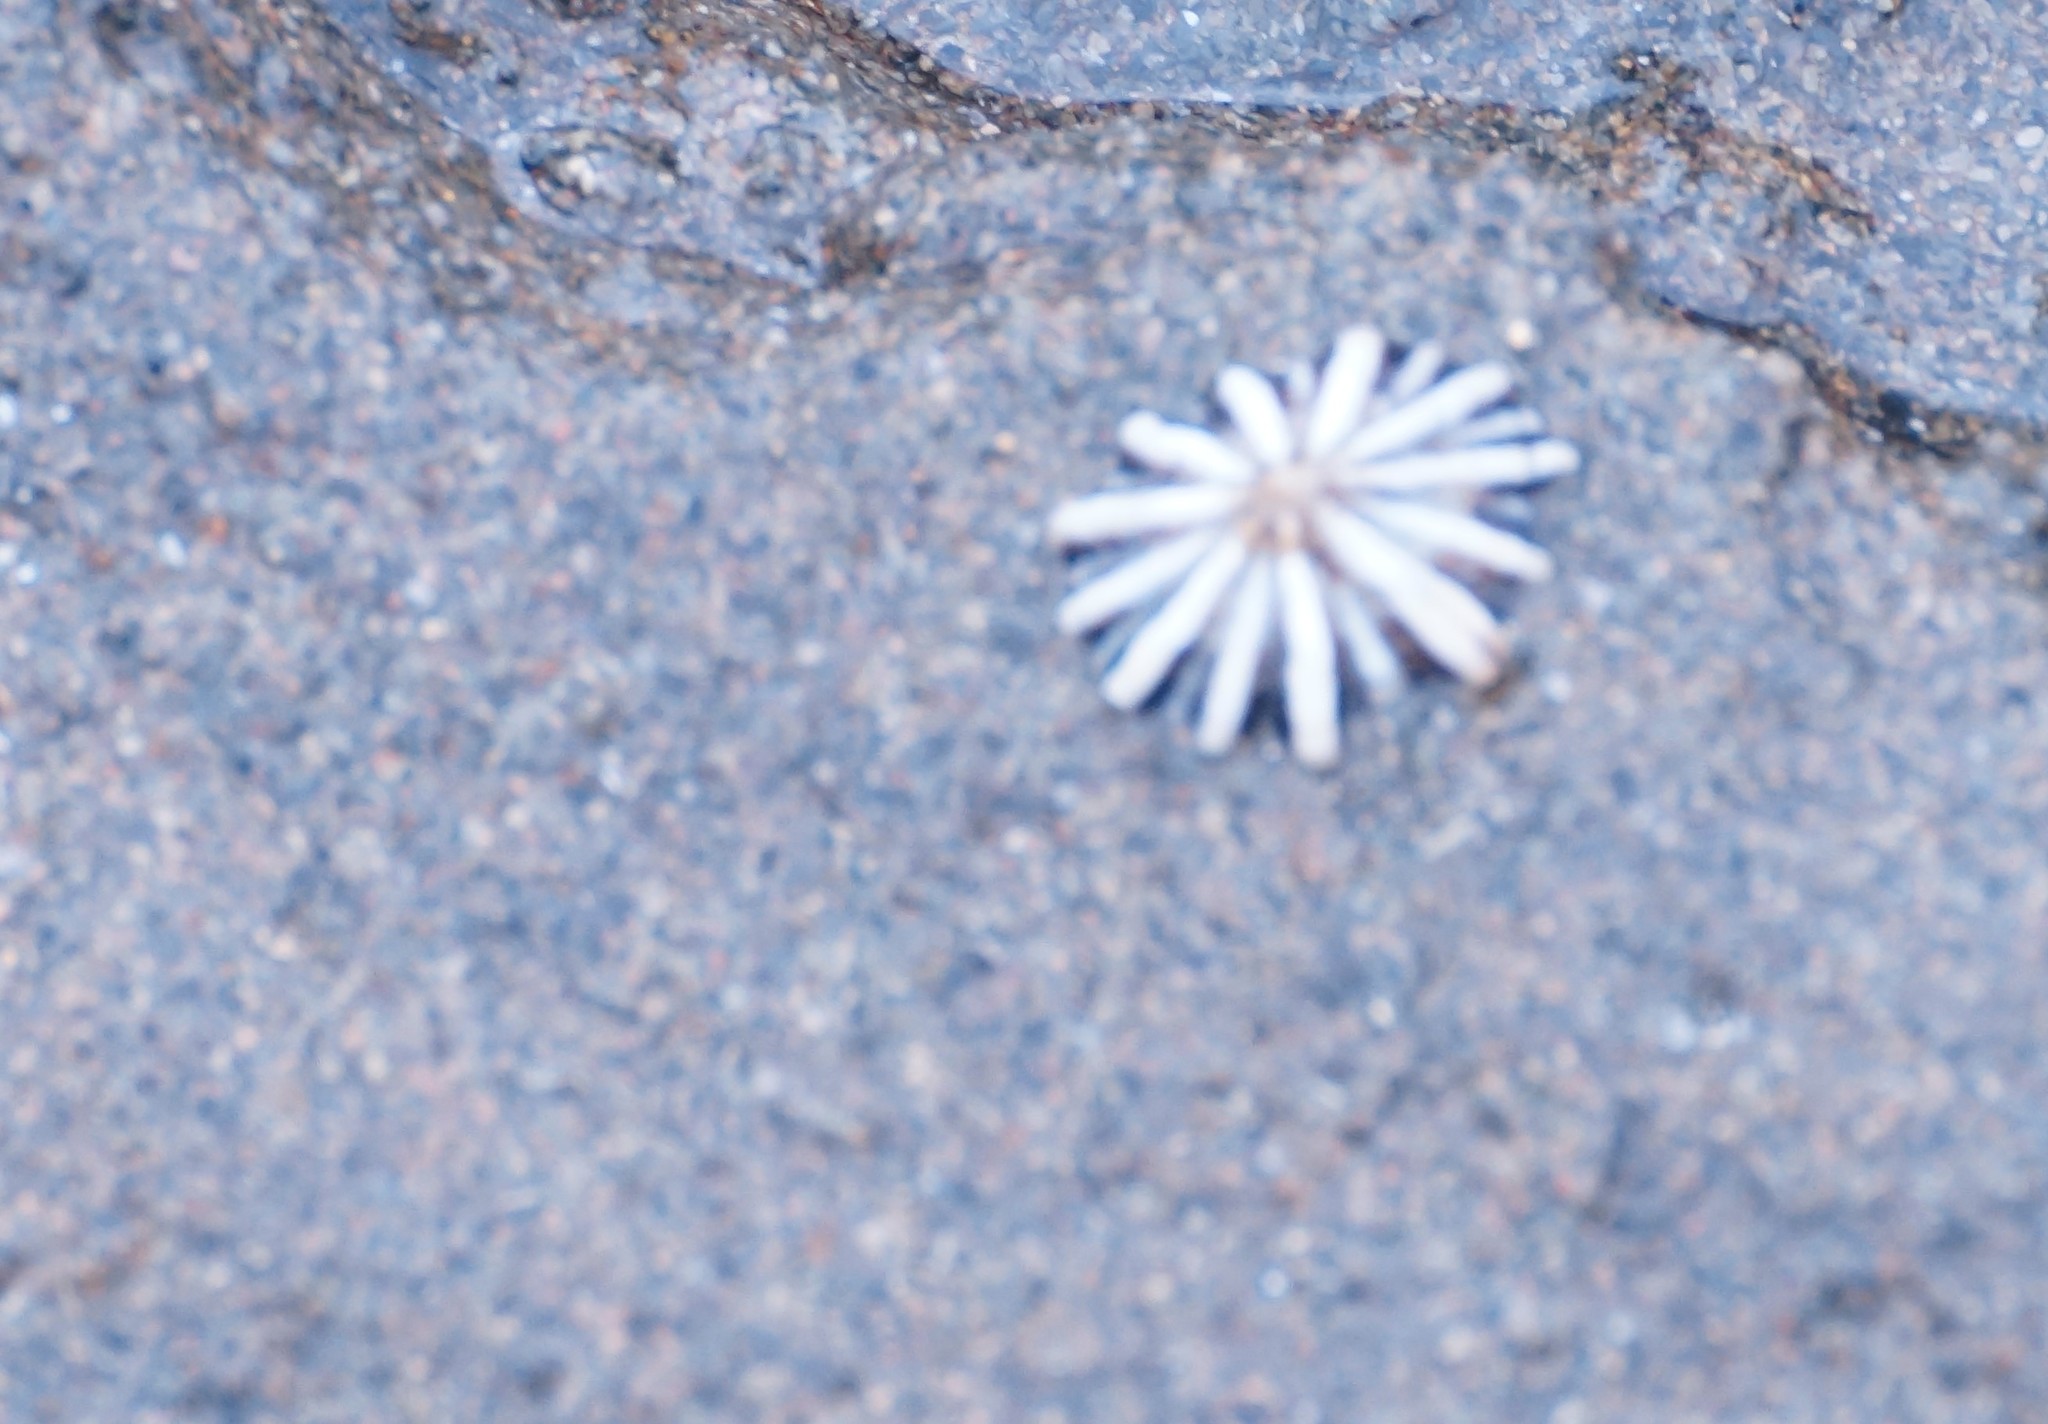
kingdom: Animalia
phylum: Mollusca
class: Gastropoda
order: Siphonariida
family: Siphonariidae
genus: Siphonaria
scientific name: Siphonaria diemenensis
